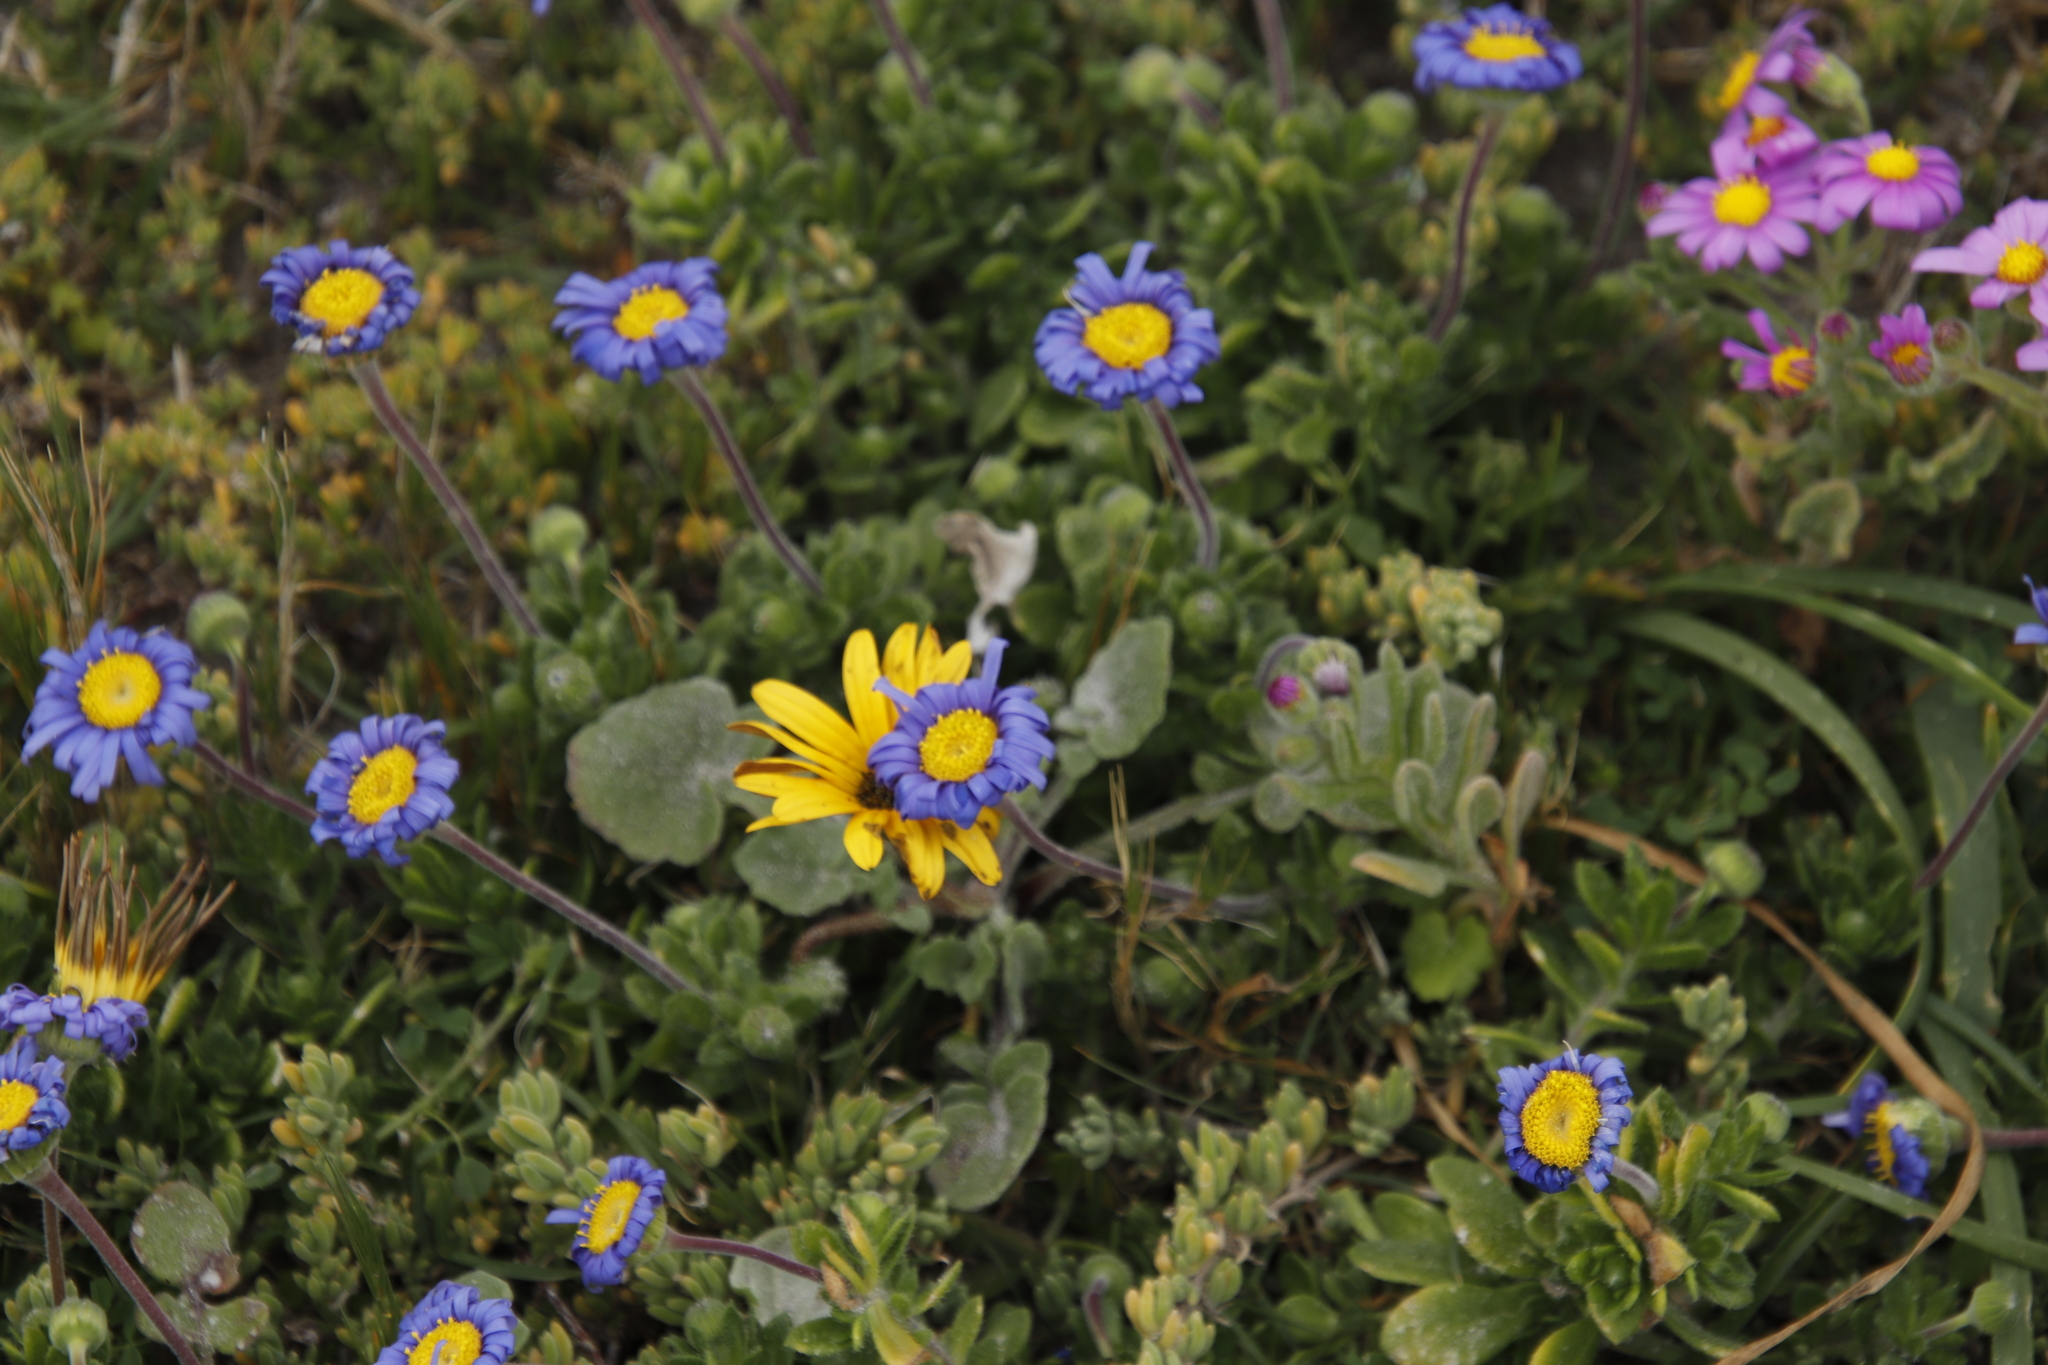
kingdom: Plantae
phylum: Tracheophyta
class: Magnoliopsida
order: Asterales
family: Asteraceae
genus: Felicia
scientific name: Felicia amoena
